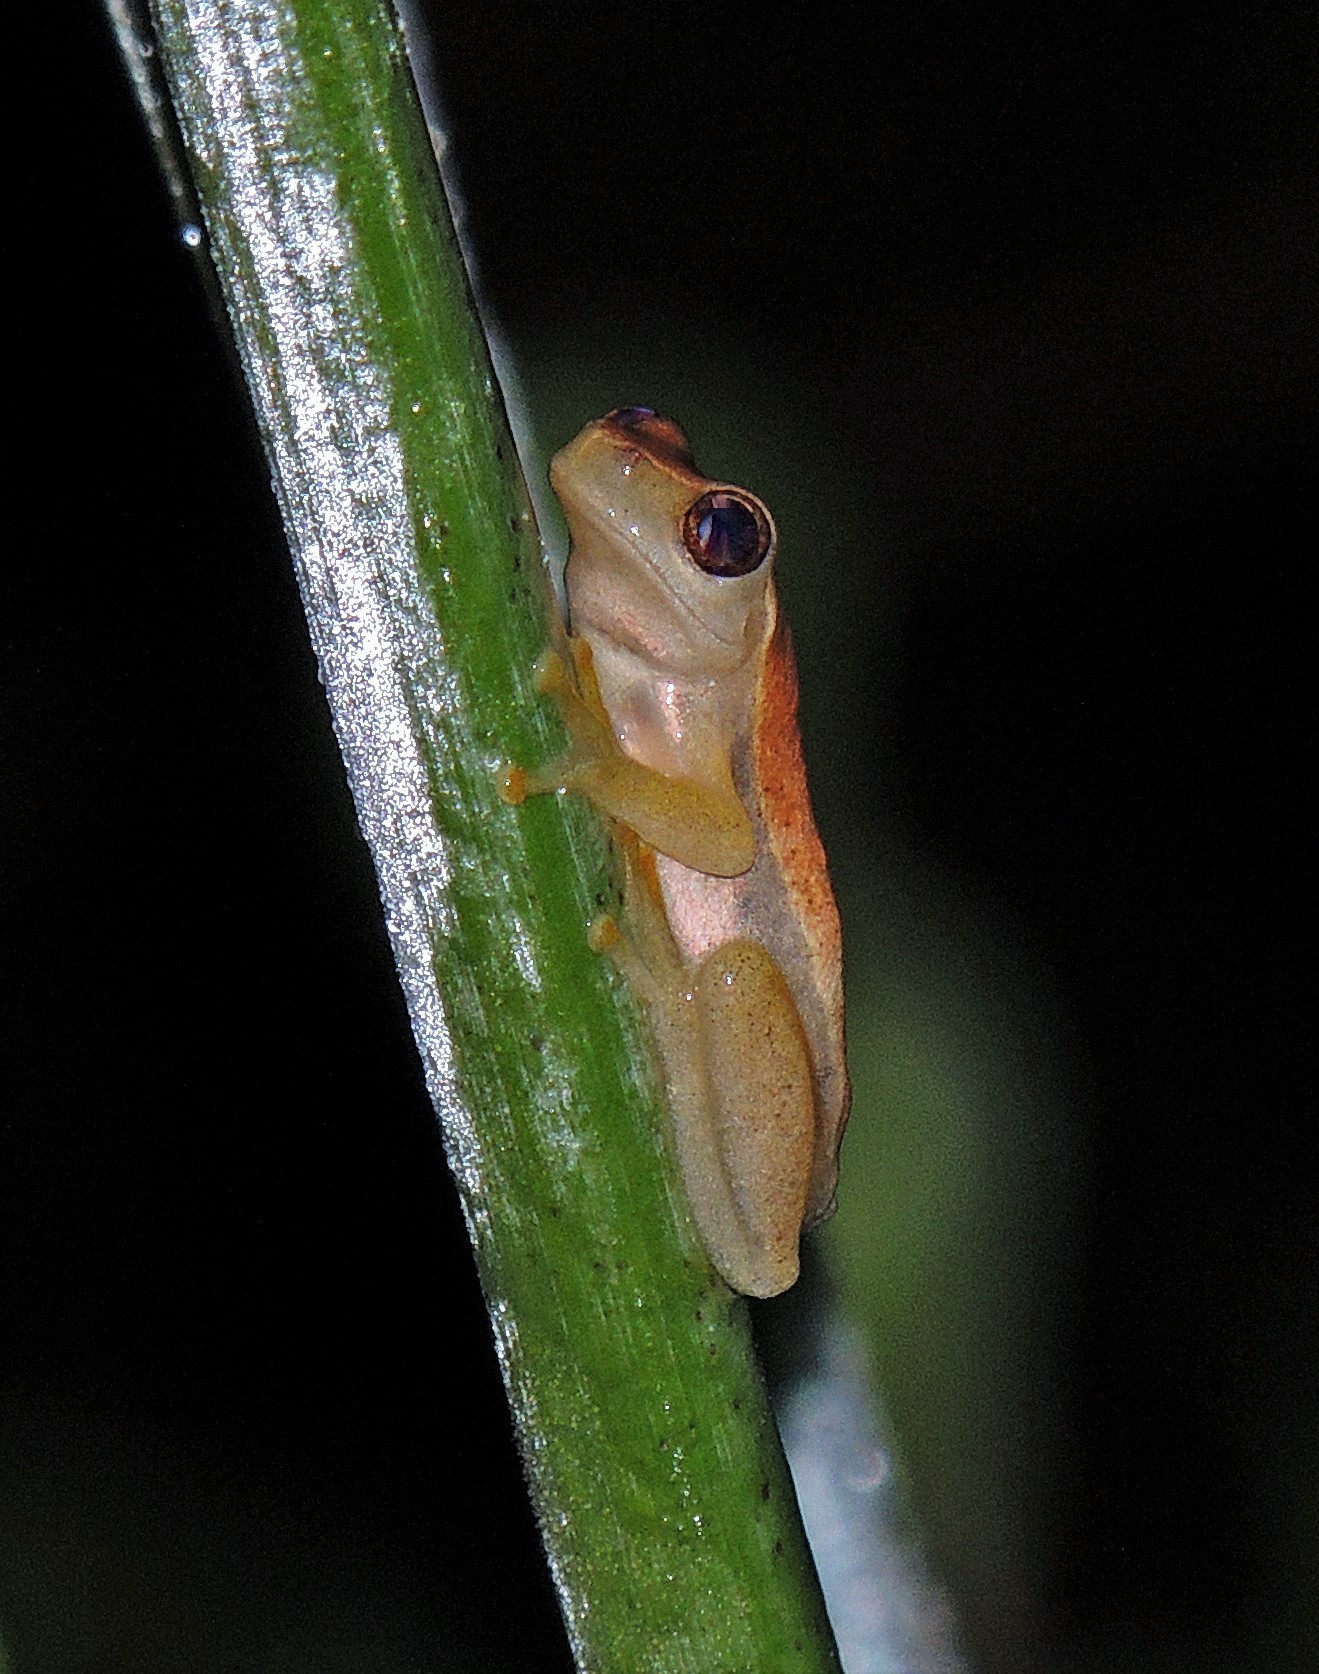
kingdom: Animalia
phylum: Chordata
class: Amphibia
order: Anura
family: Hylidae
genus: Dendropsophus
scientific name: Dendropsophus nanus
